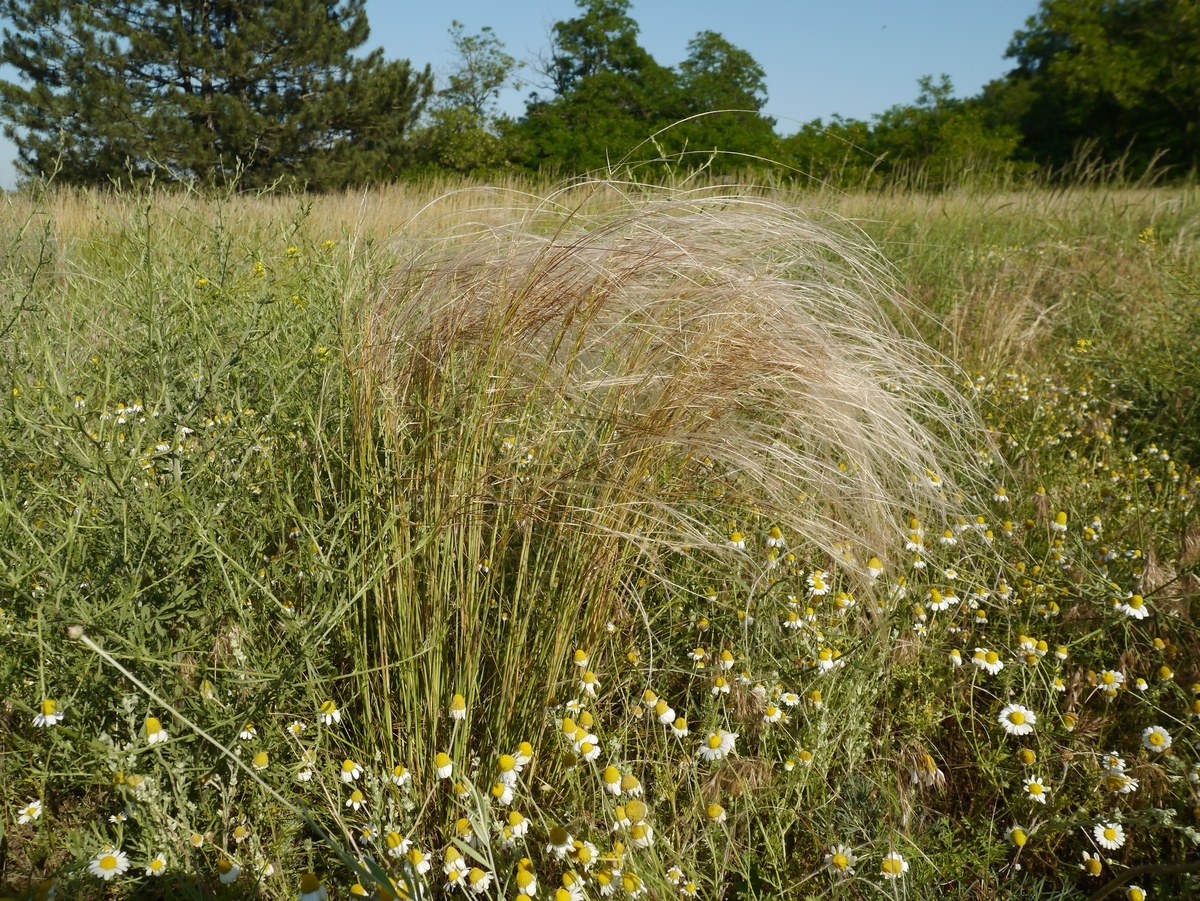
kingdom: Plantae
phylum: Tracheophyta
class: Liliopsida
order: Poales
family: Poaceae
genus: Stipa
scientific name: Stipa borysthenica
